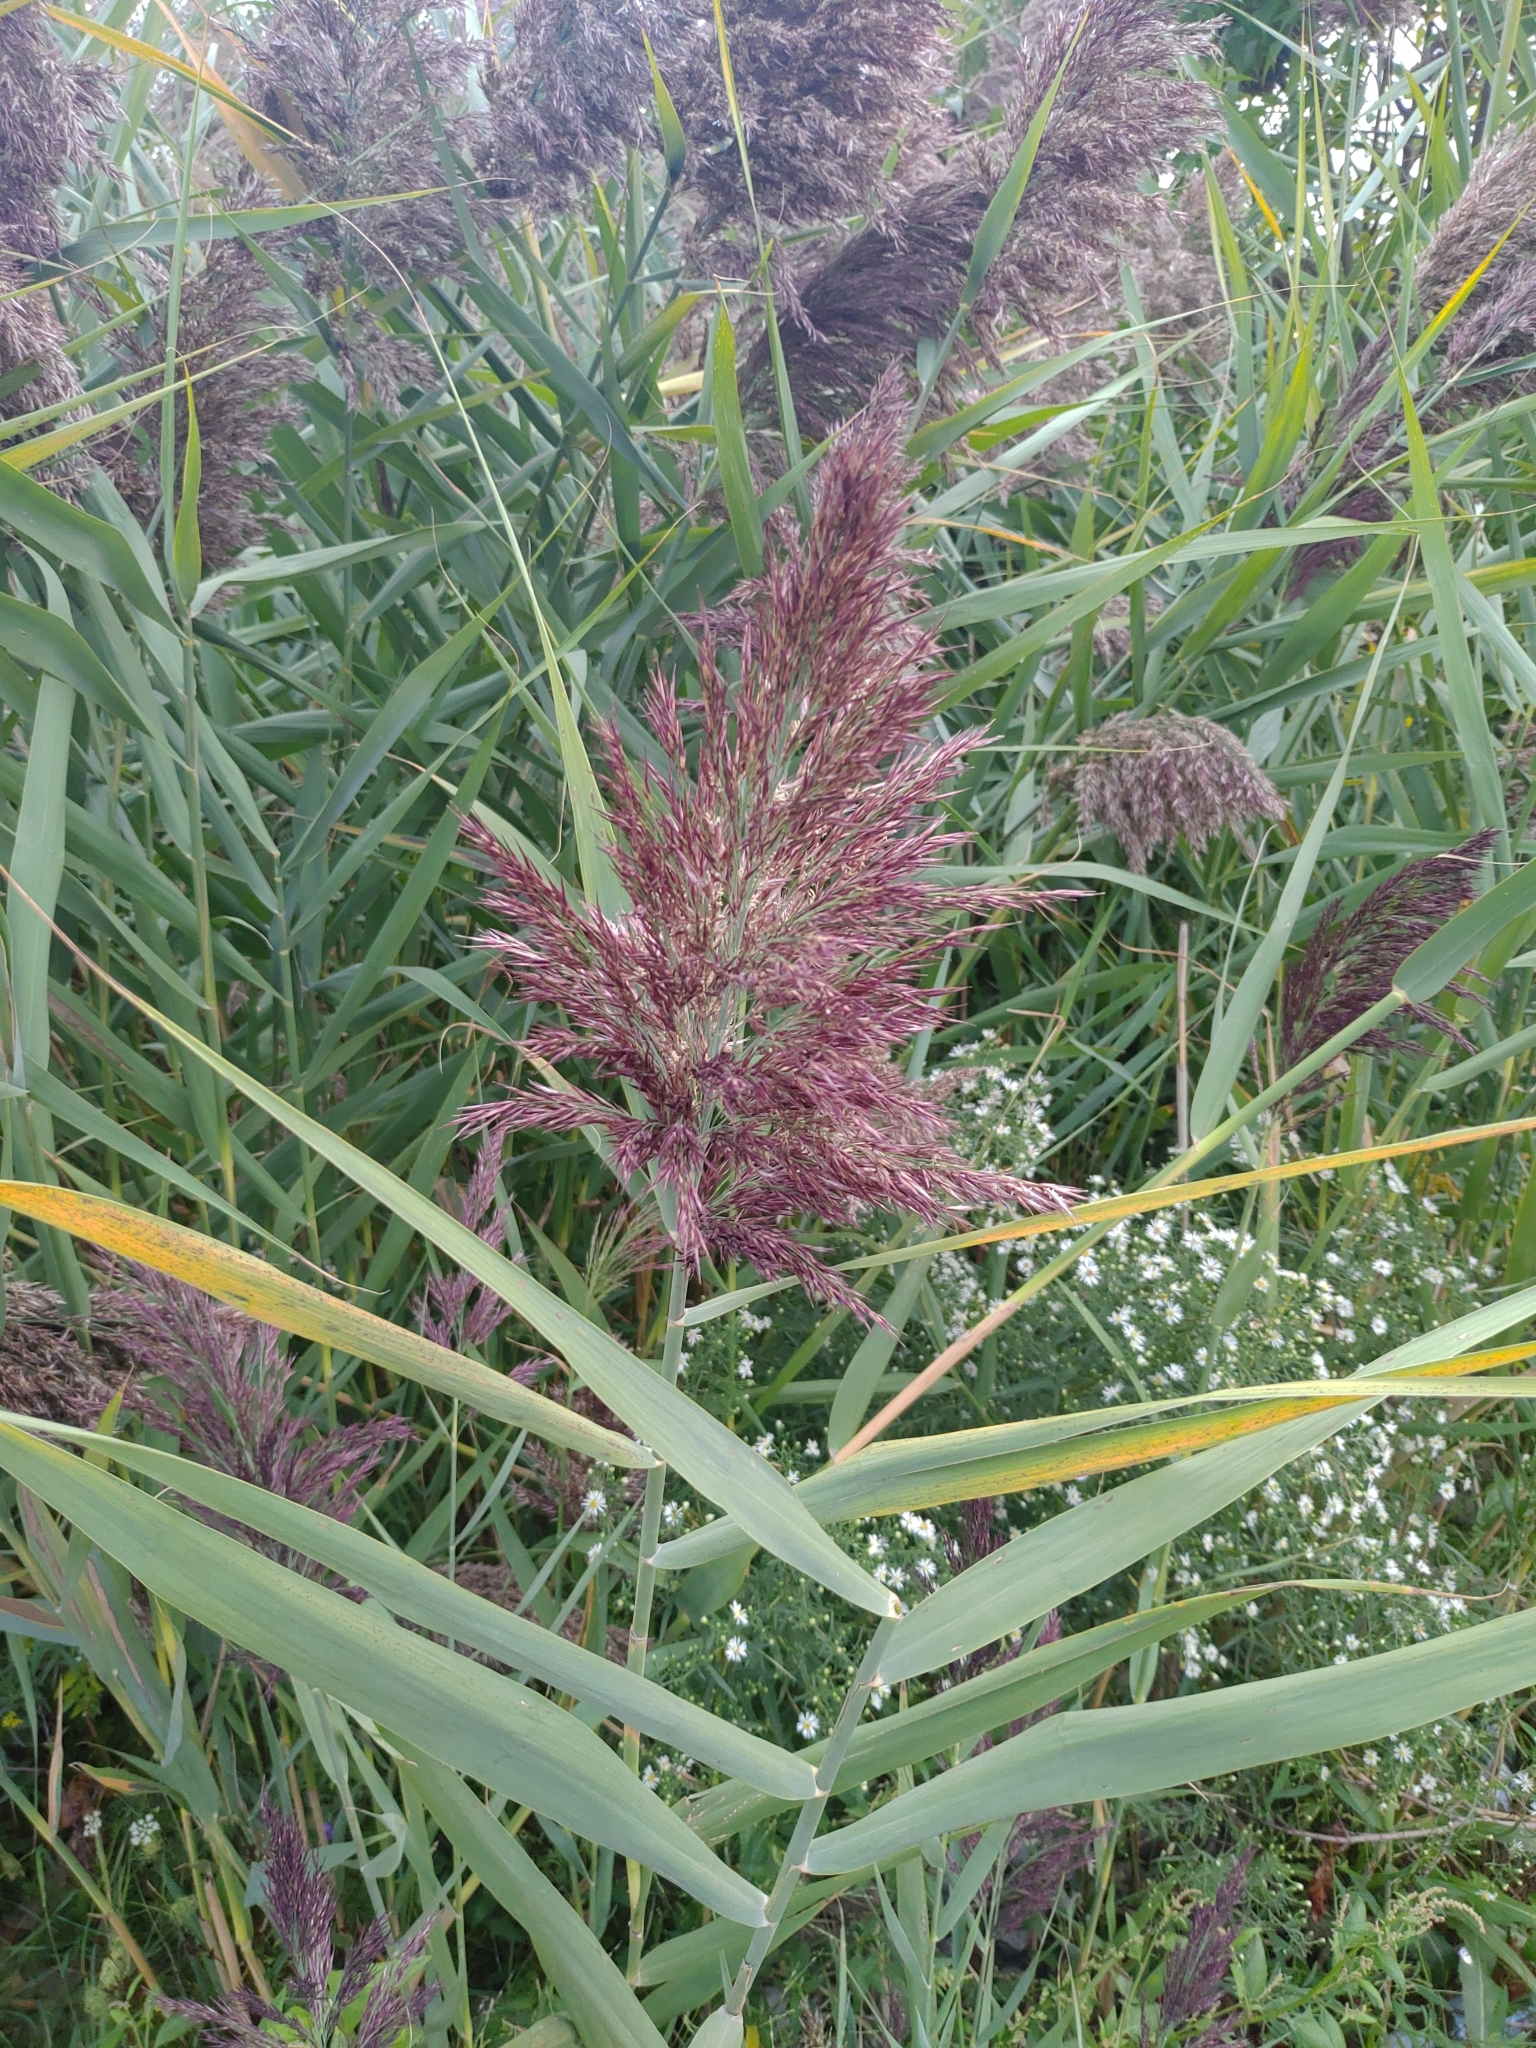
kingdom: Plantae
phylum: Tracheophyta
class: Liliopsida
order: Poales
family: Poaceae
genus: Phragmites
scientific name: Phragmites australis
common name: Common reed
